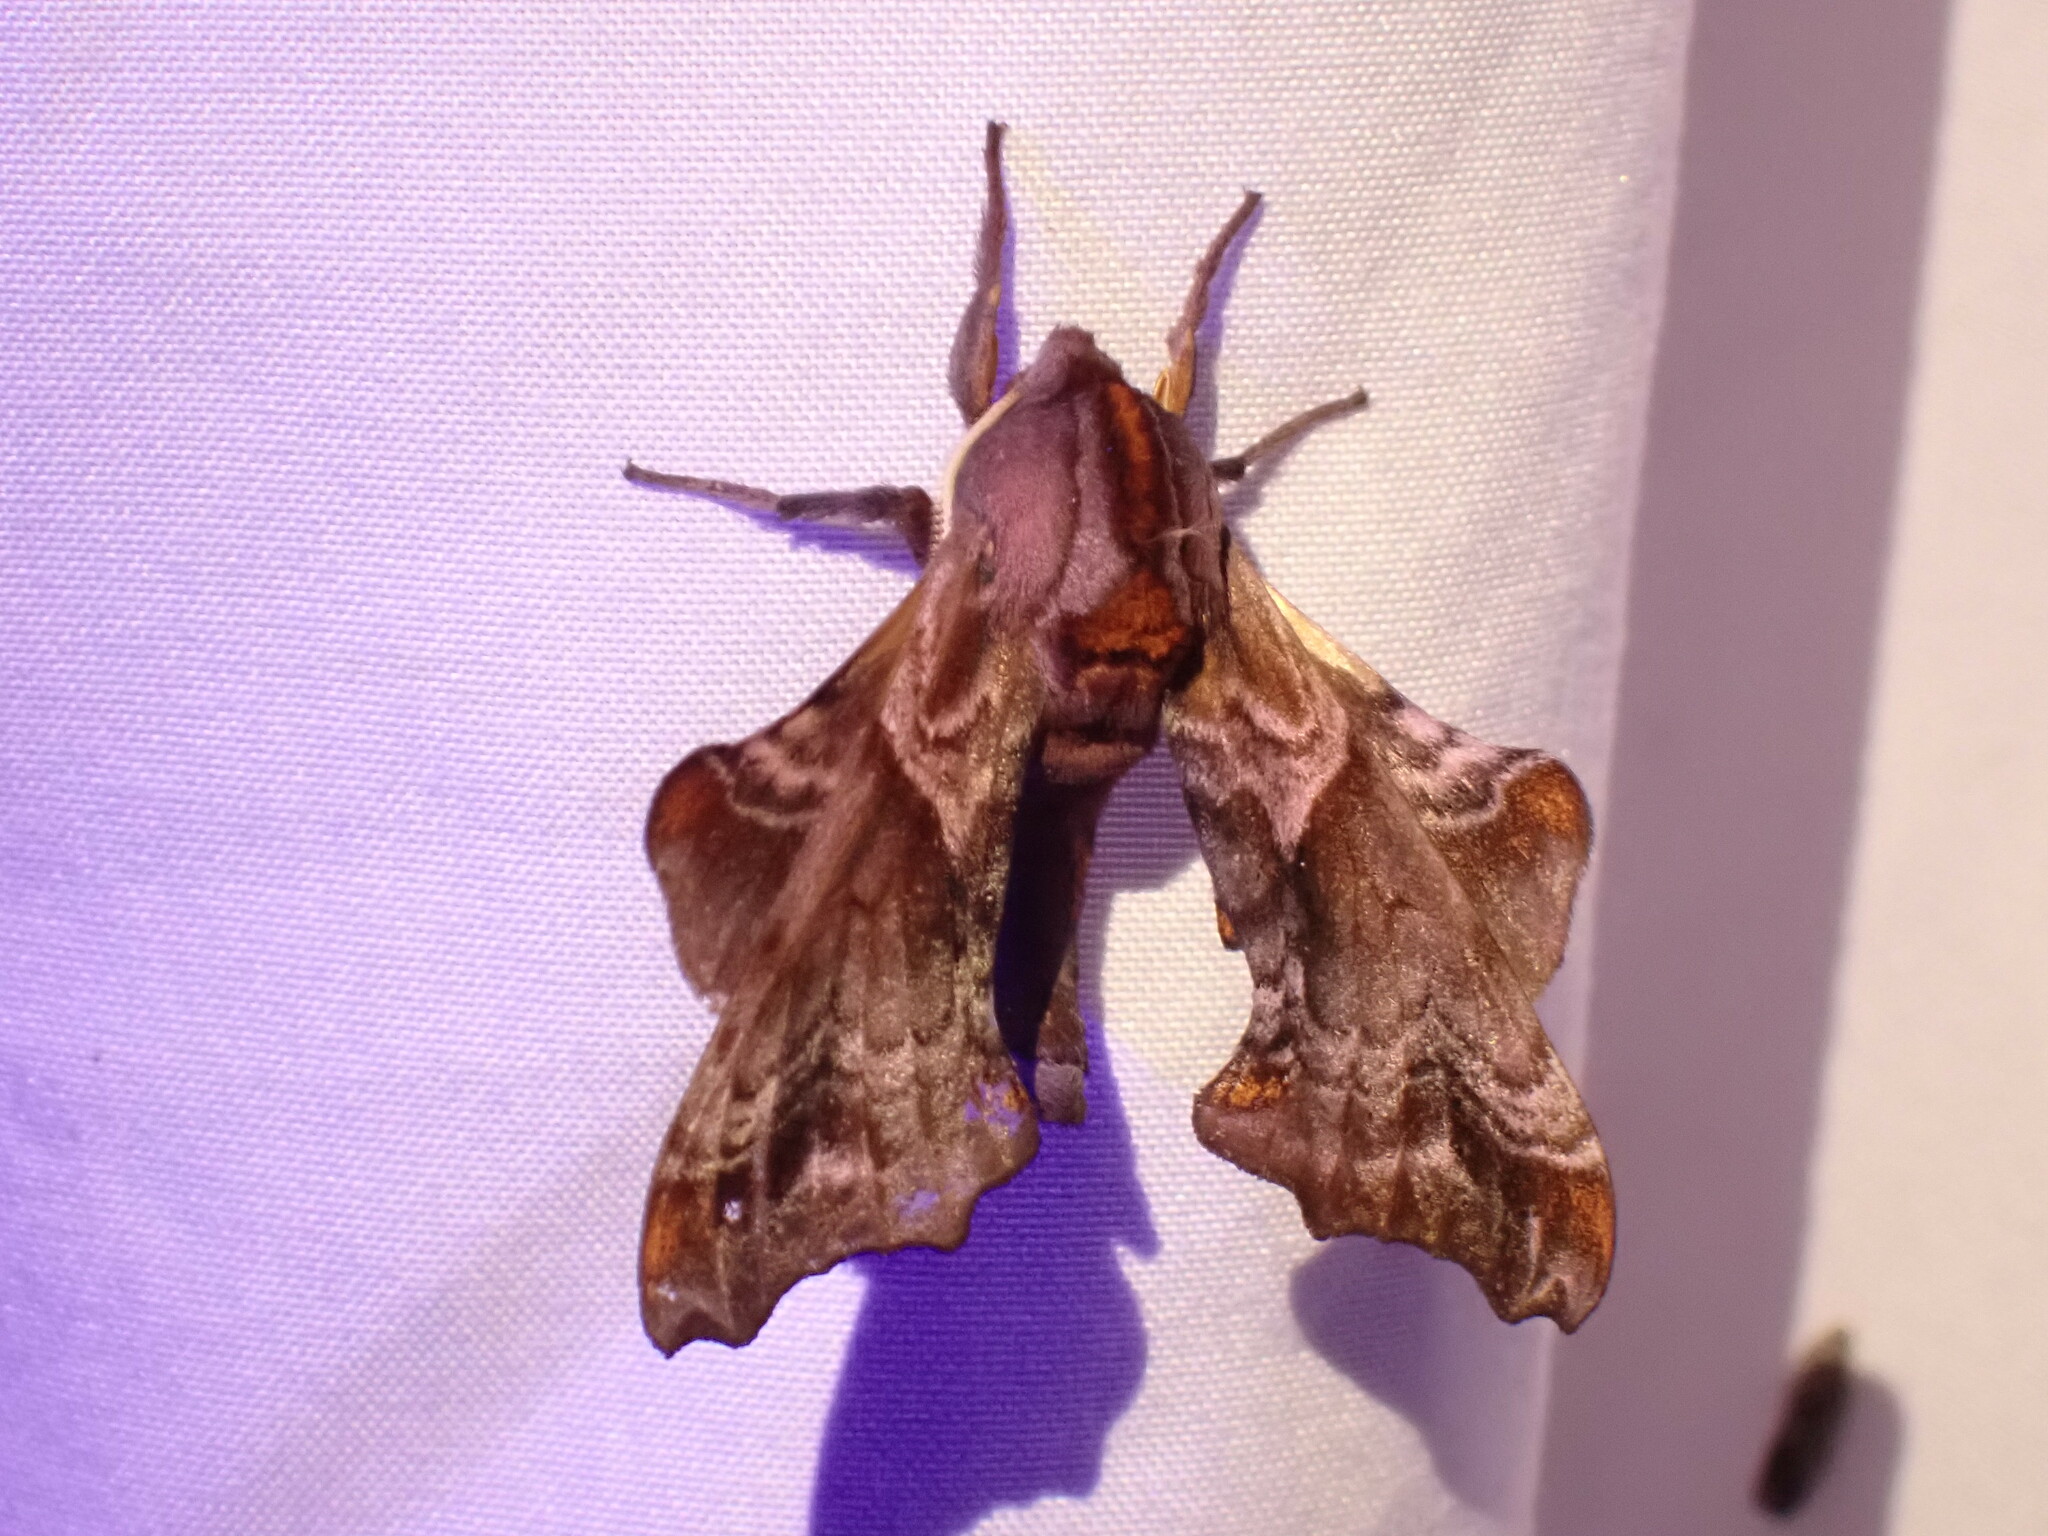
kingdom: Animalia
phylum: Arthropoda
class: Insecta
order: Lepidoptera
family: Sphingidae
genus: Paonias
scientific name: Paonias myops
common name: Small-eyed sphinx
